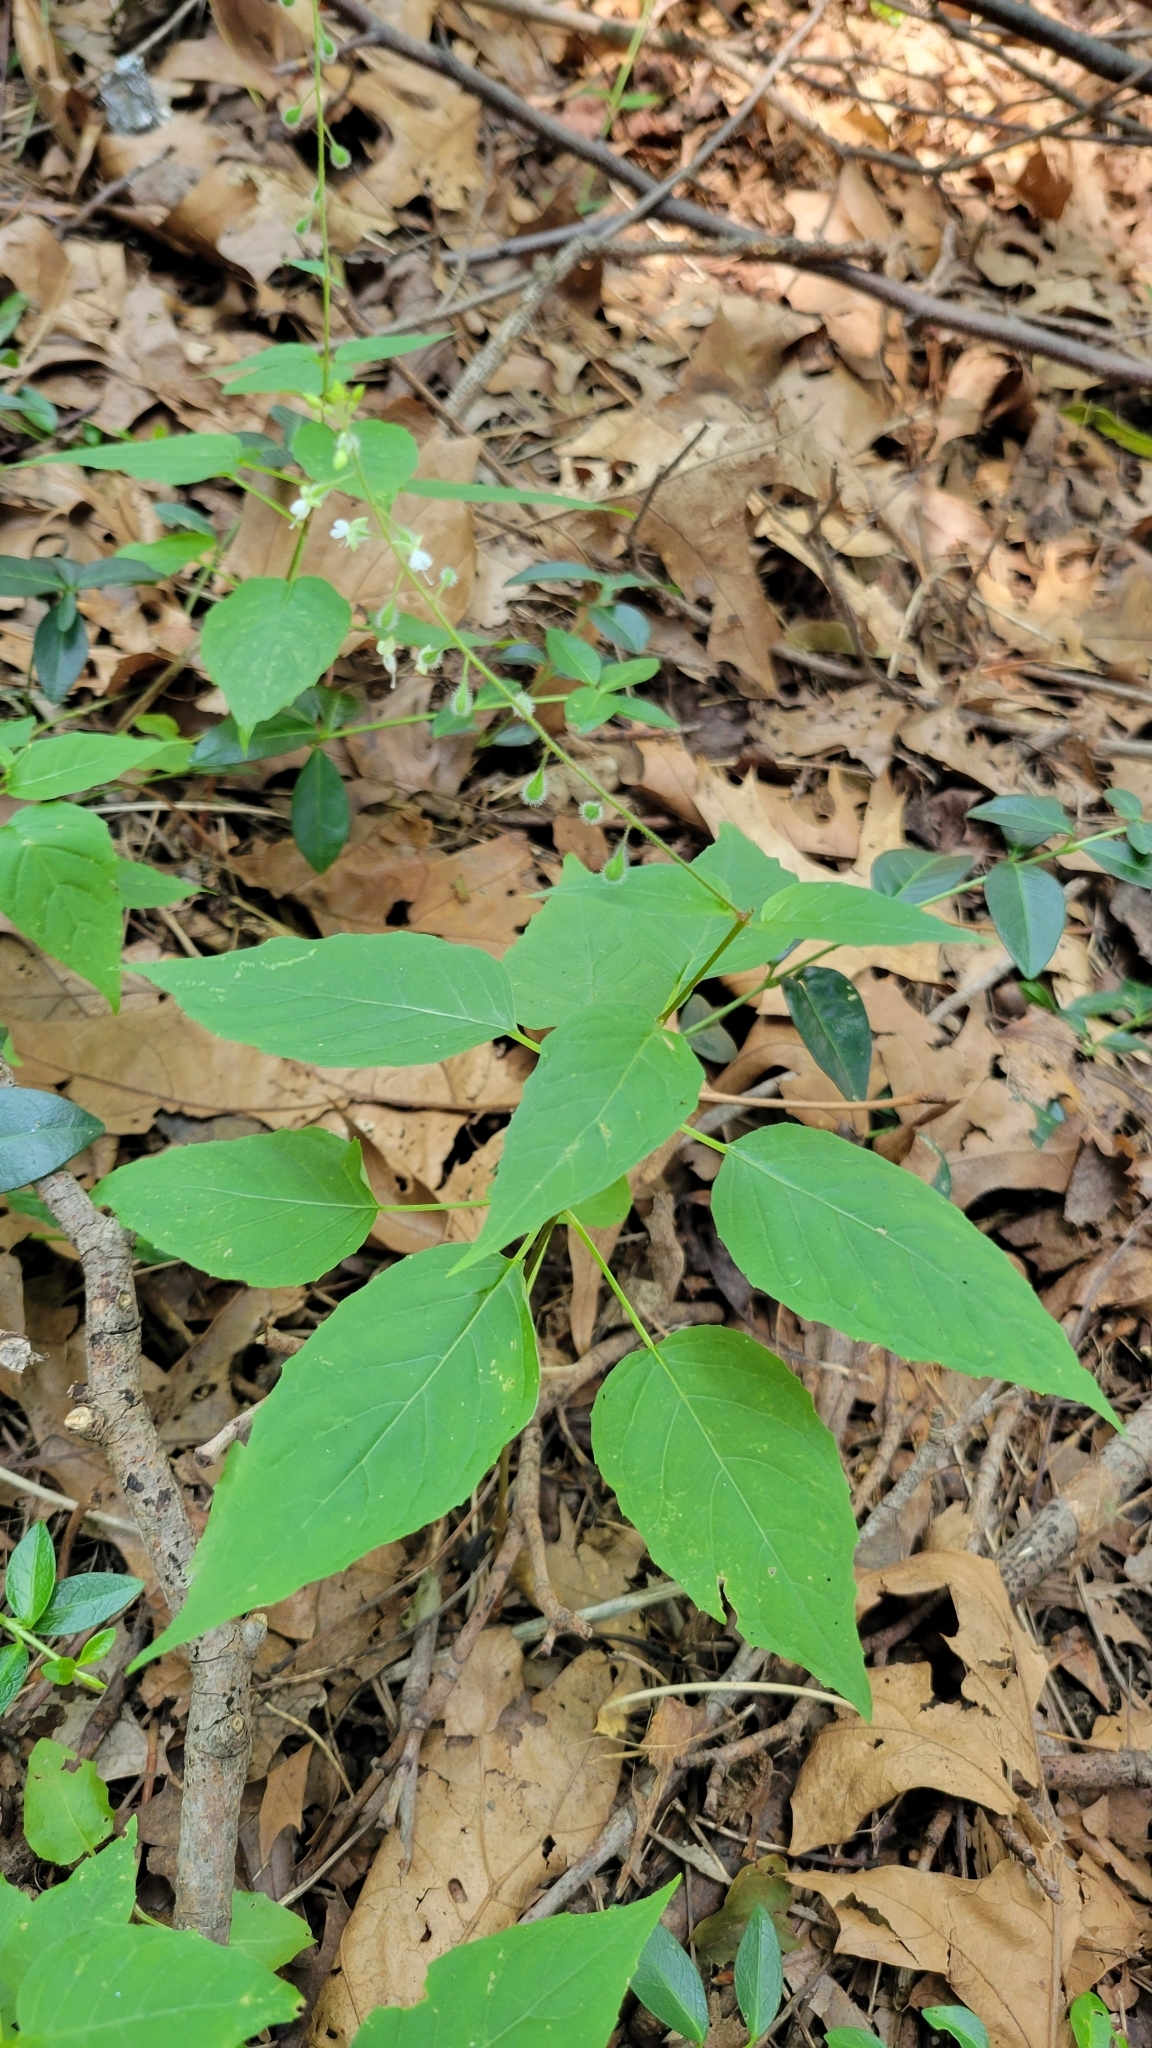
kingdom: Plantae
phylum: Tracheophyta
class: Magnoliopsida
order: Myrtales
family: Onagraceae
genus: Circaea
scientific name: Circaea canadensis
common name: Broad-leaved enchanter's nightshade
